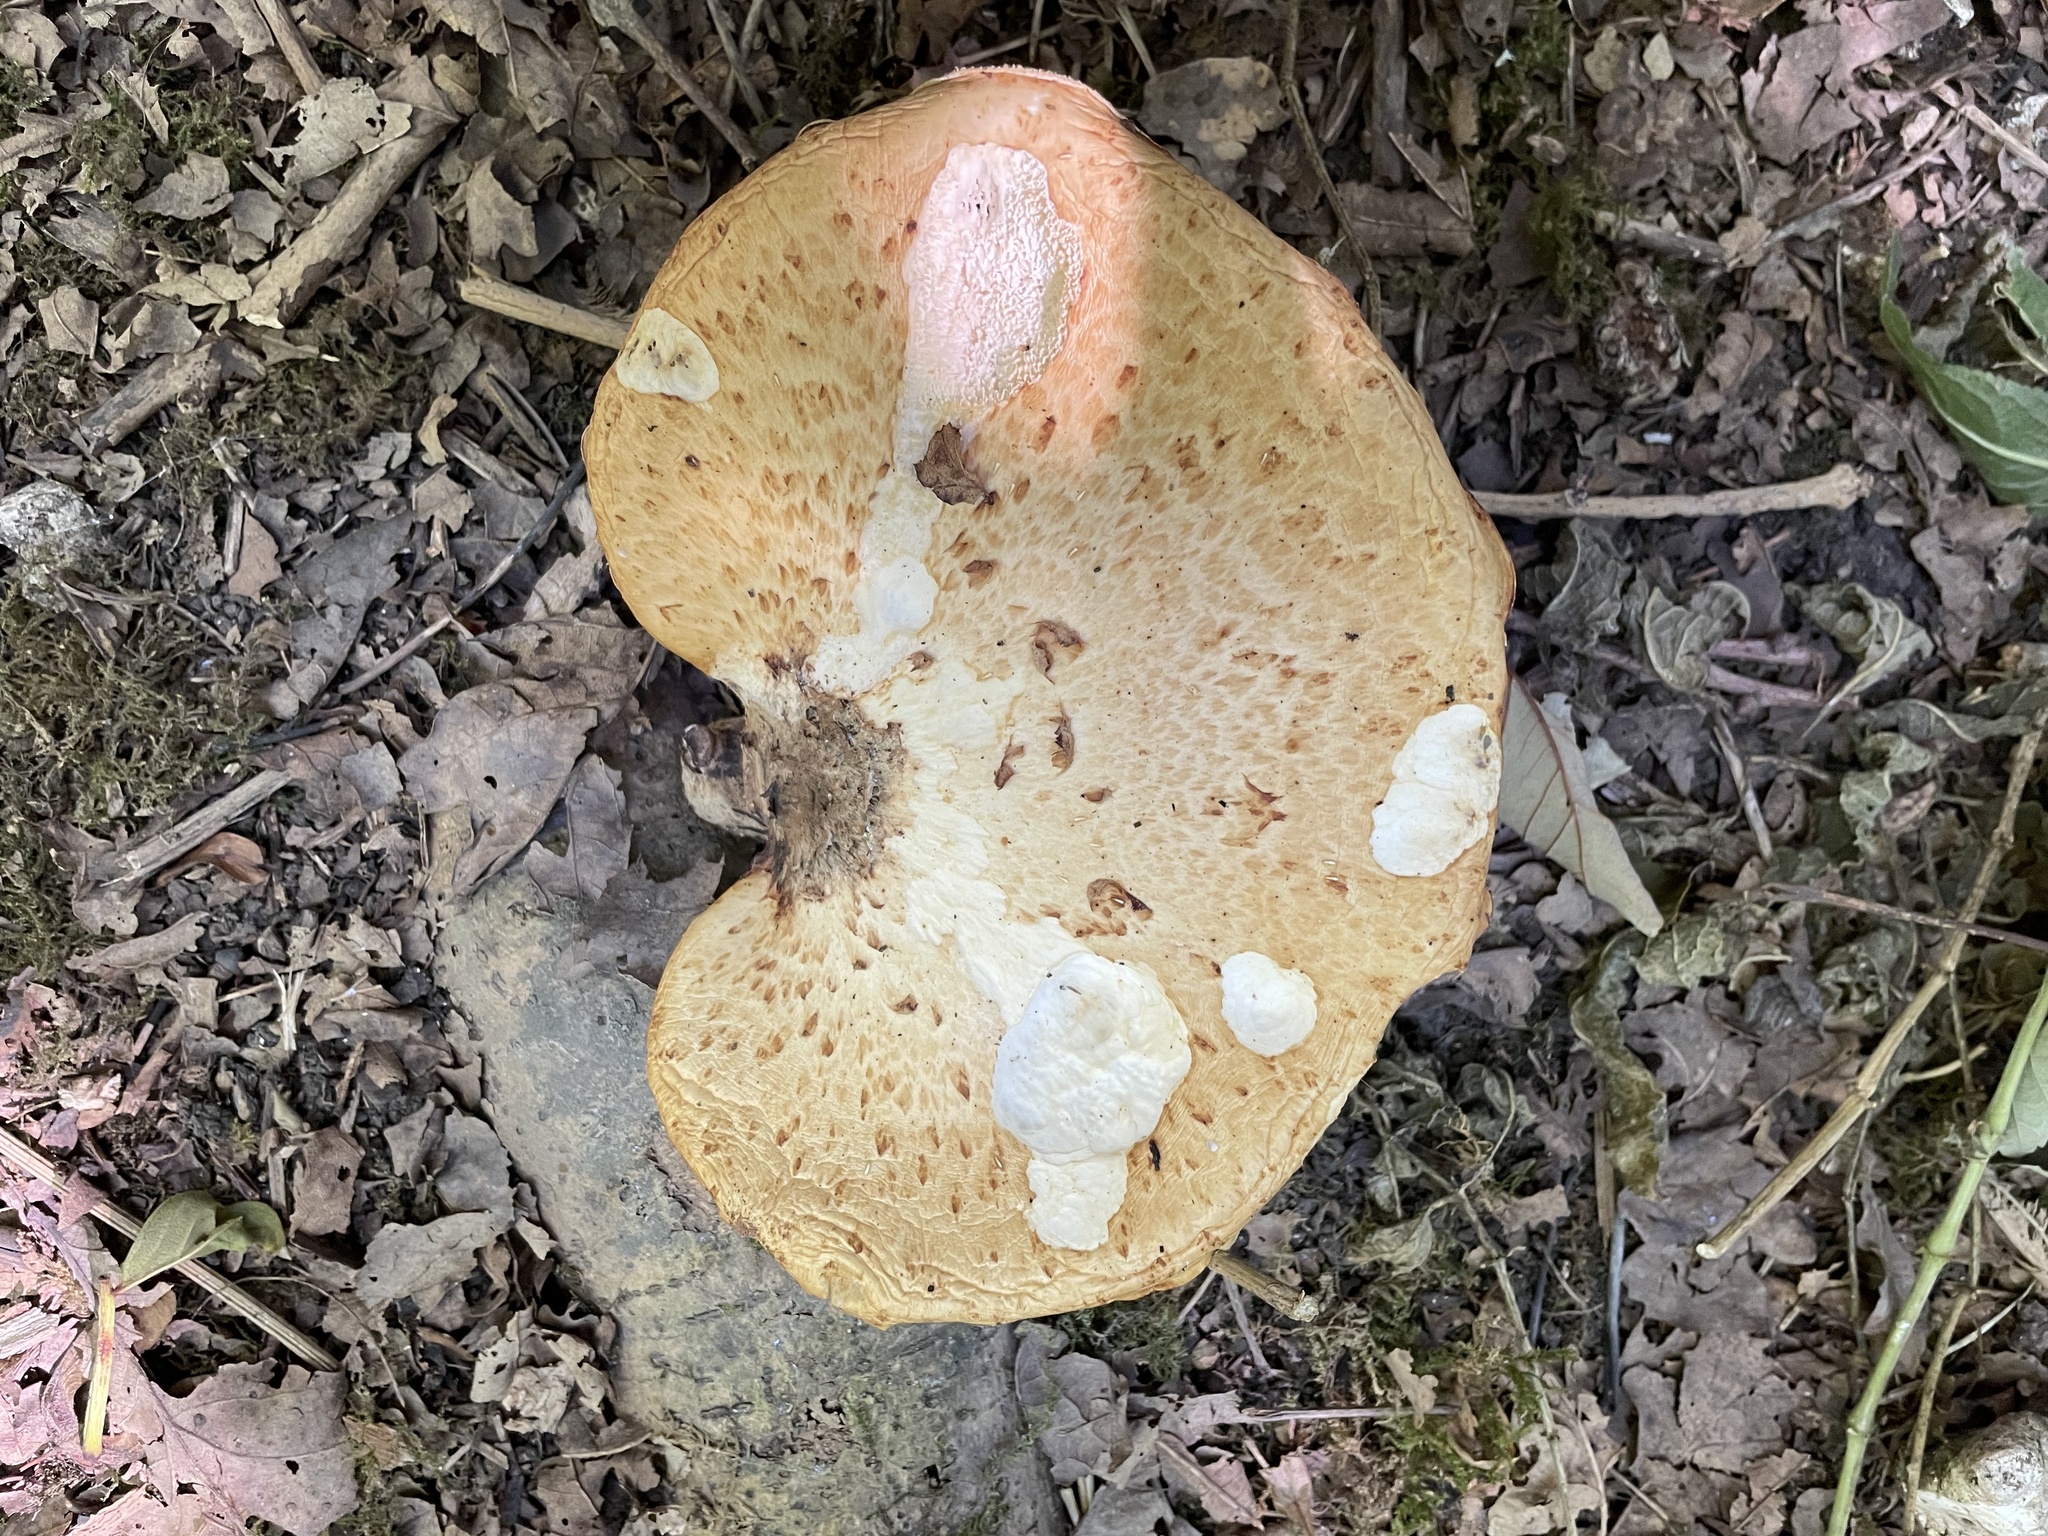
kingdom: Fungi
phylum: Basidiomycota
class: Agaricomycetes
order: Polyporales
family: Polyporaceae
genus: Cerioporus
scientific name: Cerioporus squamosus
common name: Dryad's saddle
